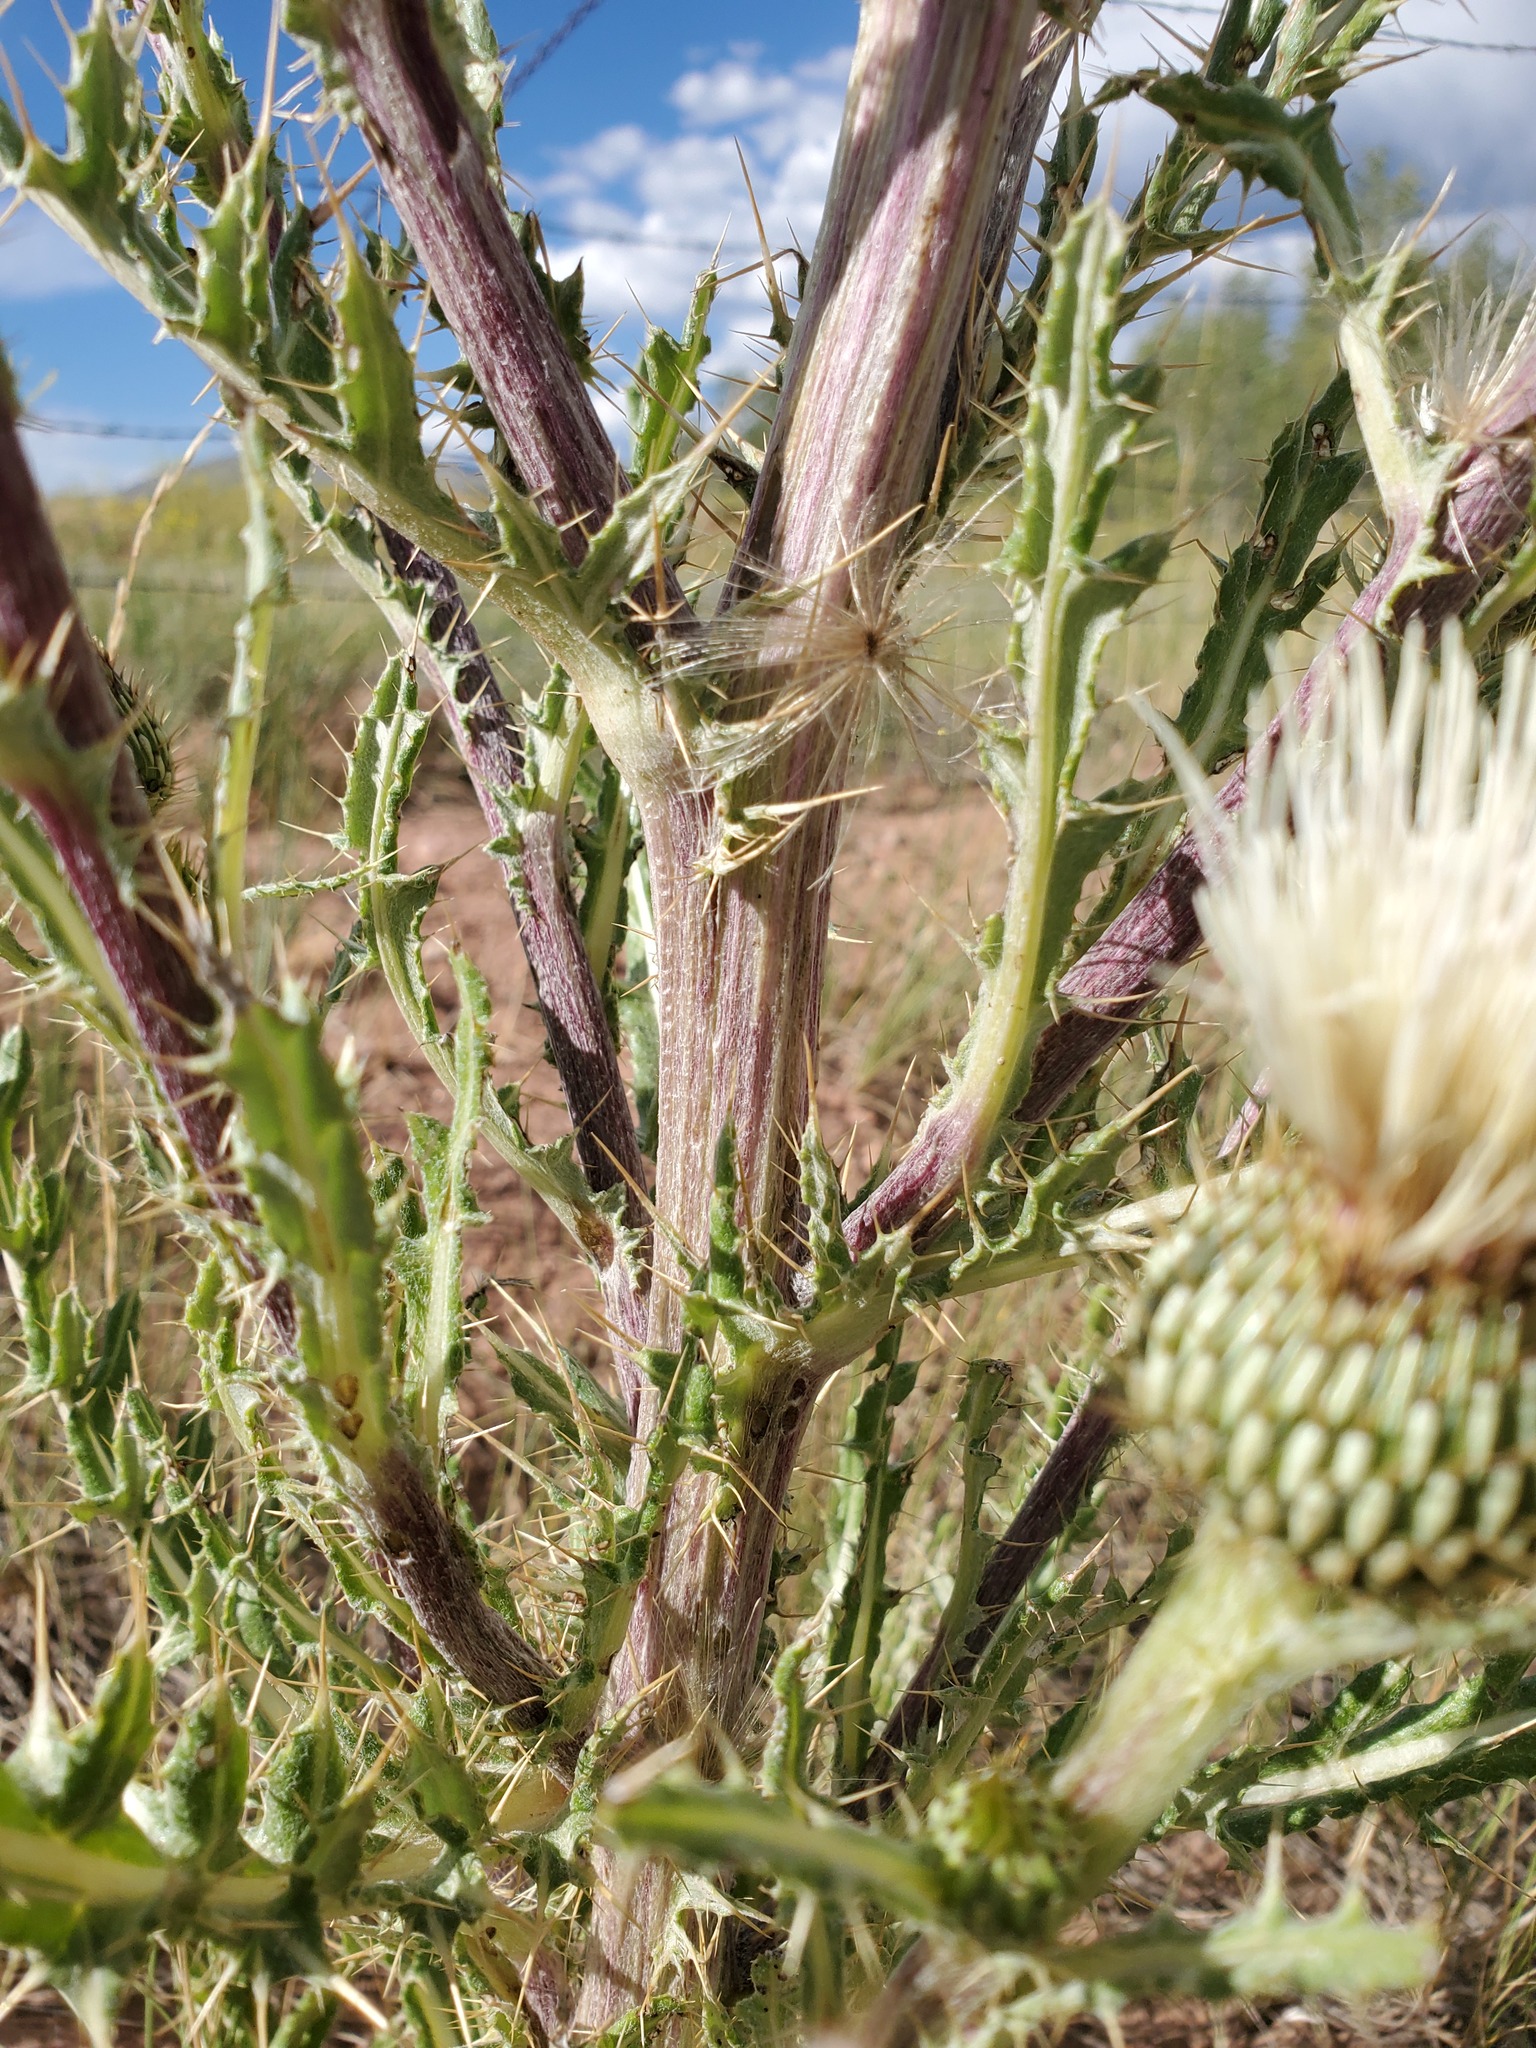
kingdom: Plantae
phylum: Tracheophyta
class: Magnoliopsida
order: Asterales
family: Asteraceae
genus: Cirsium
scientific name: Cirsium canescens
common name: Prairie thistle
